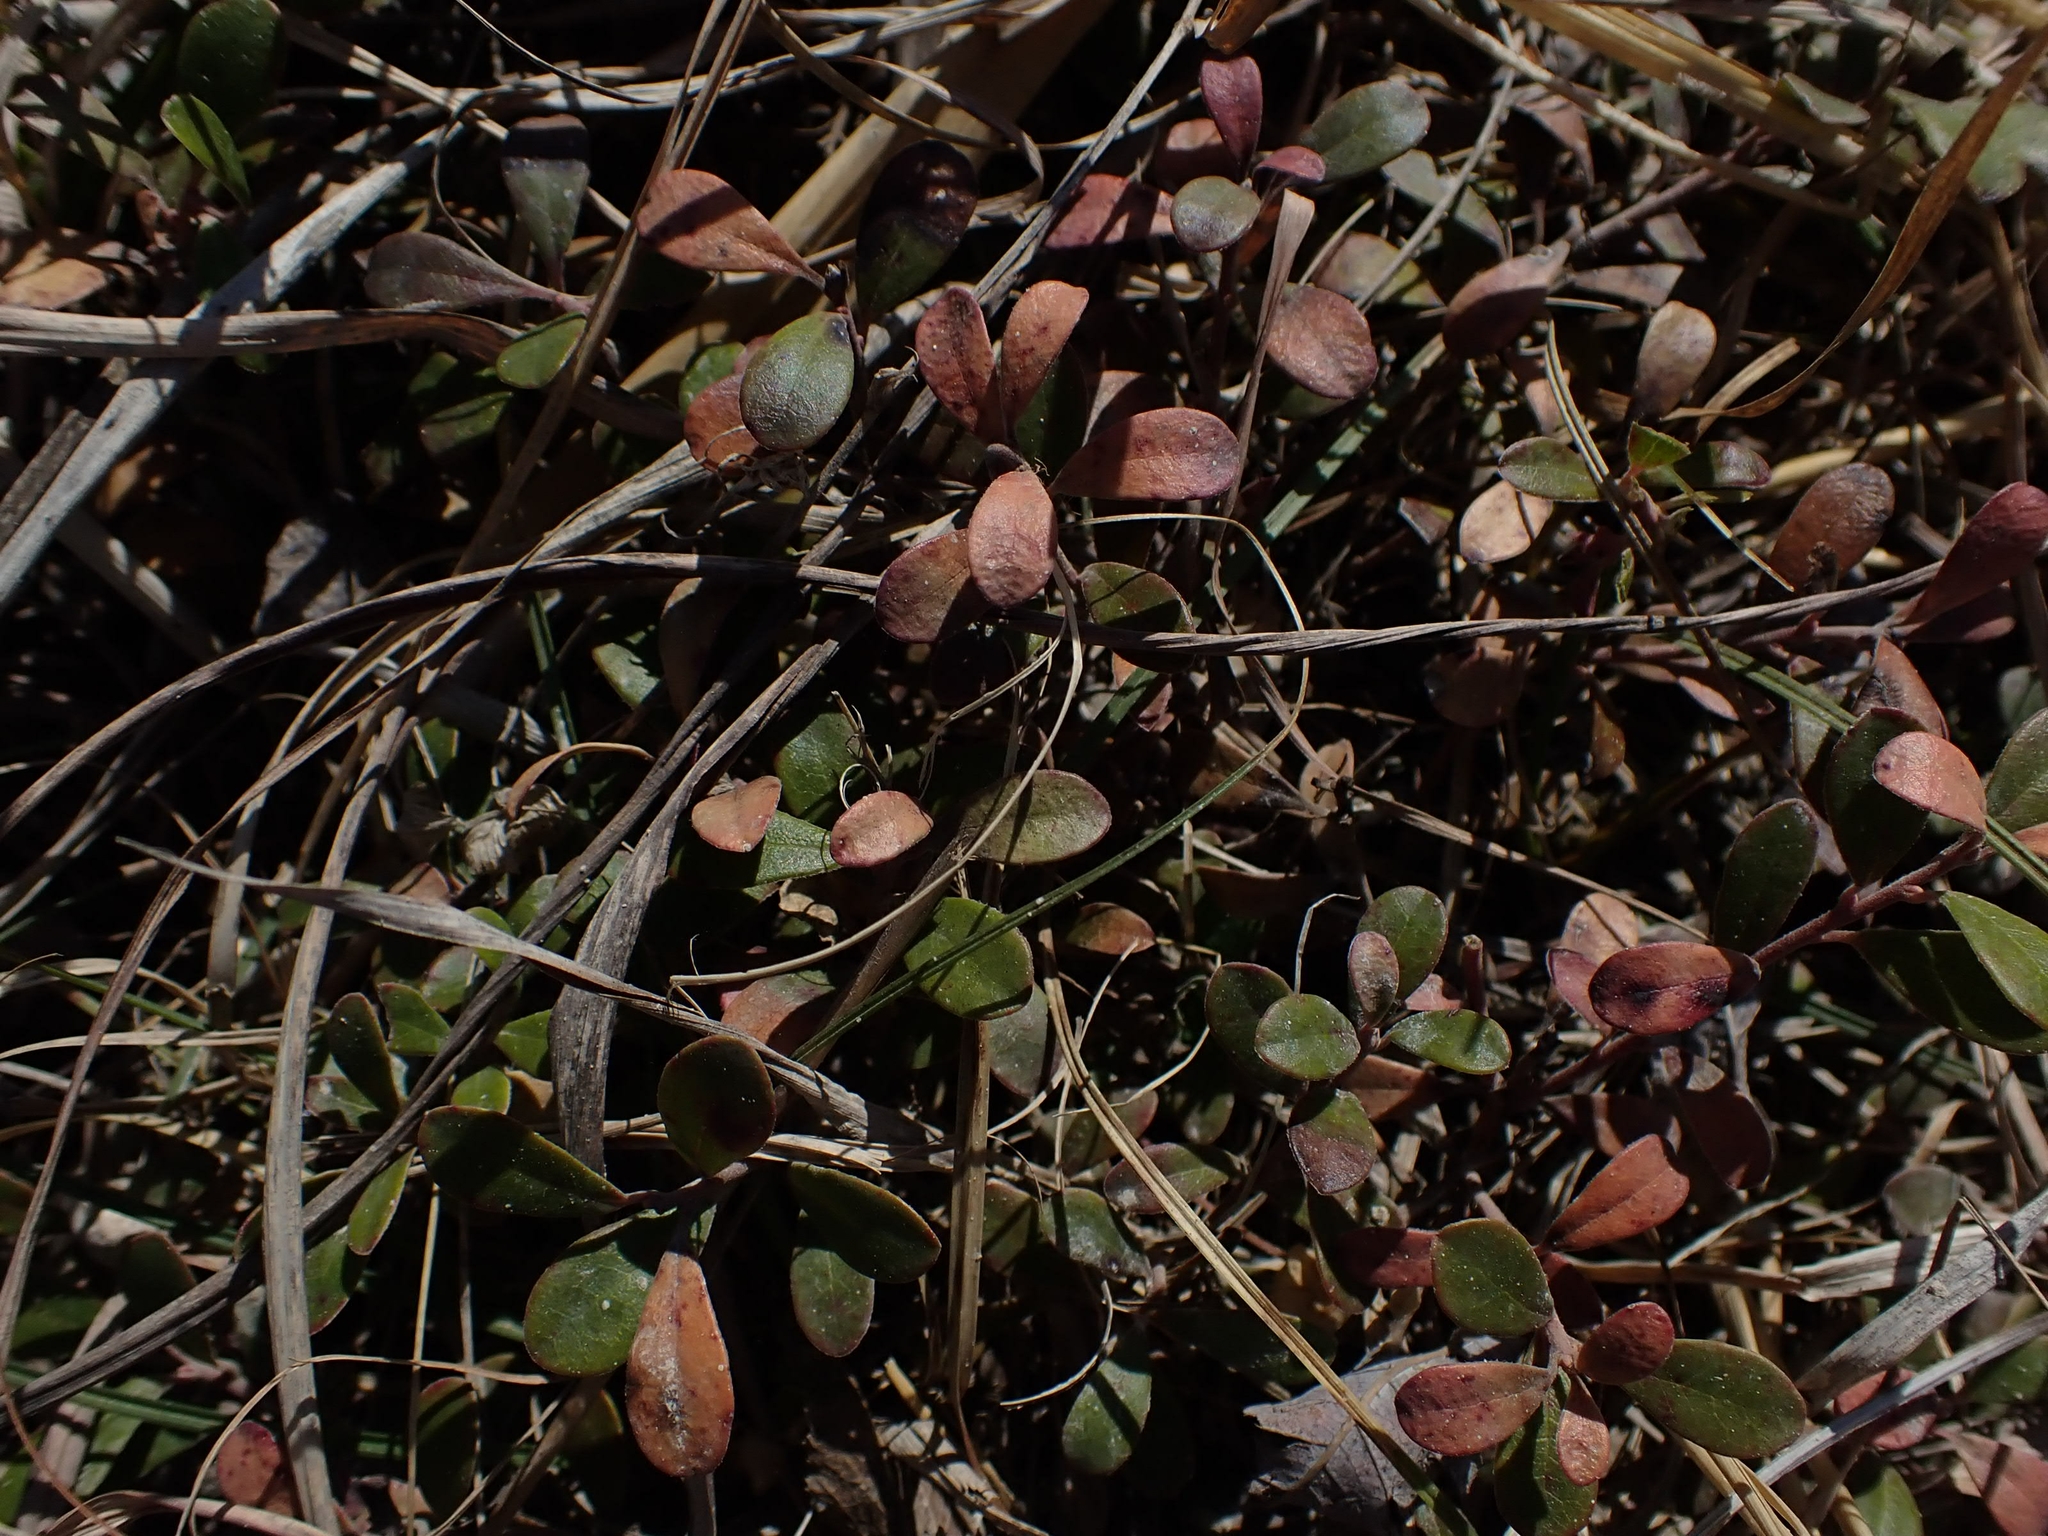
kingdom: Plantae
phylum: Tracheophyta
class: Magnoliopsida
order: Ericales
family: Ericaceae
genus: Arctostaphylos
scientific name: Arctostaphylos uva-ursi
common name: Bearberry
